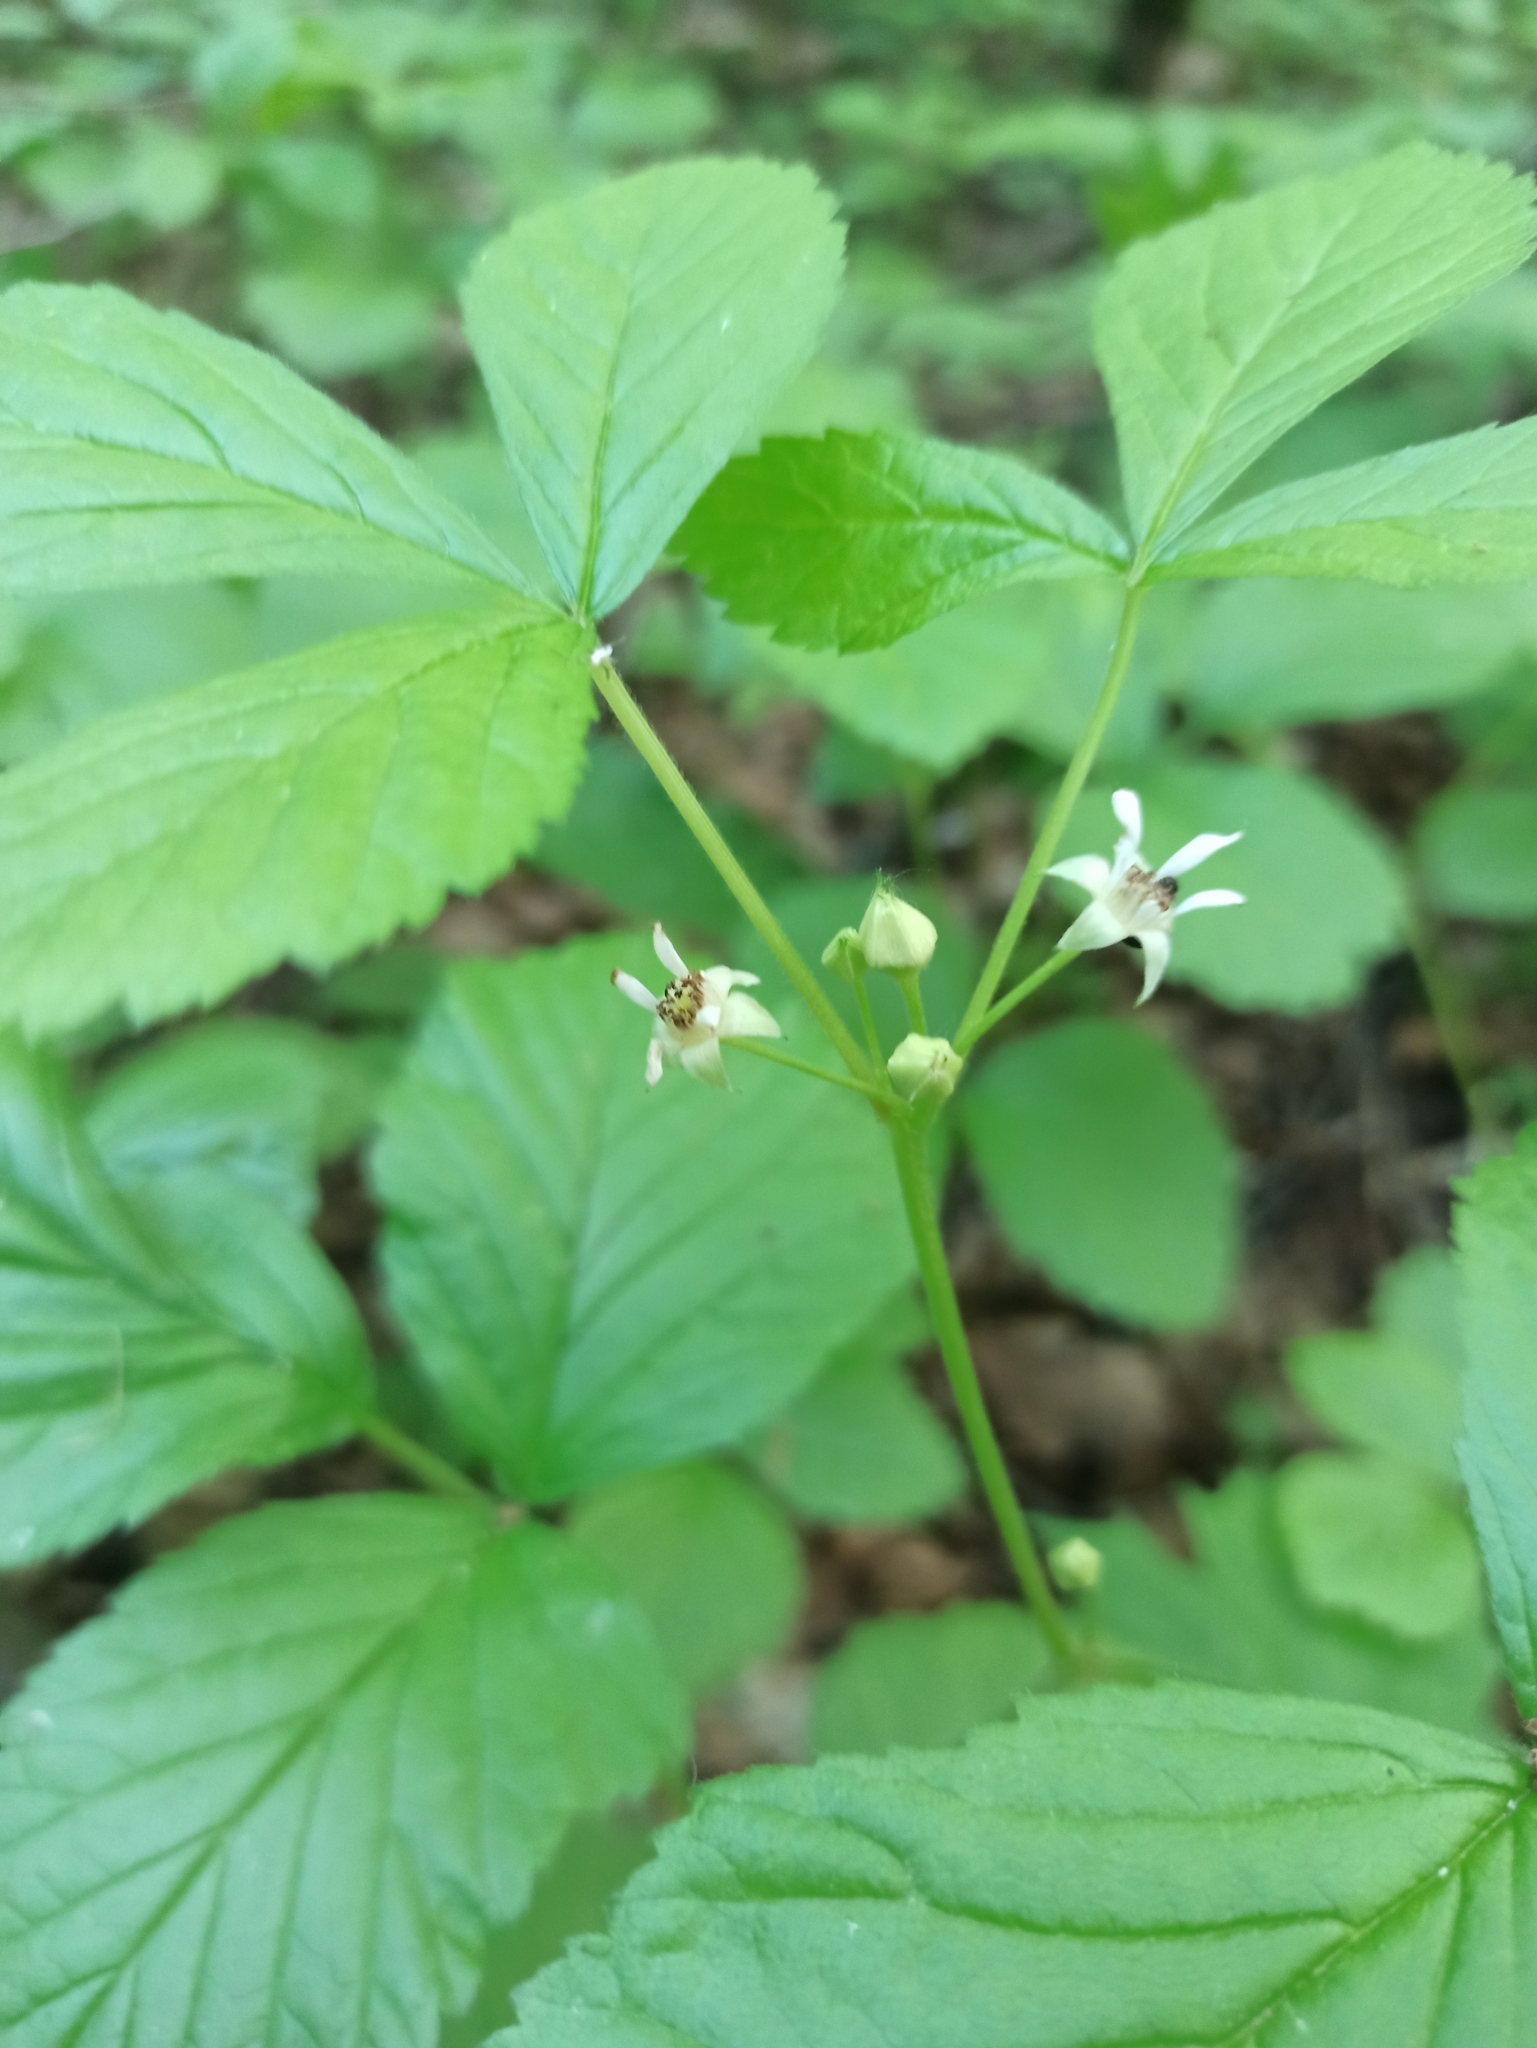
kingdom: Plantae
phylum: Tracheophyta
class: Magnoliopsida
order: Rosales
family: Rosaceae
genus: Rubus
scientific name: Rubus saxatilis
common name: Stone bramble
